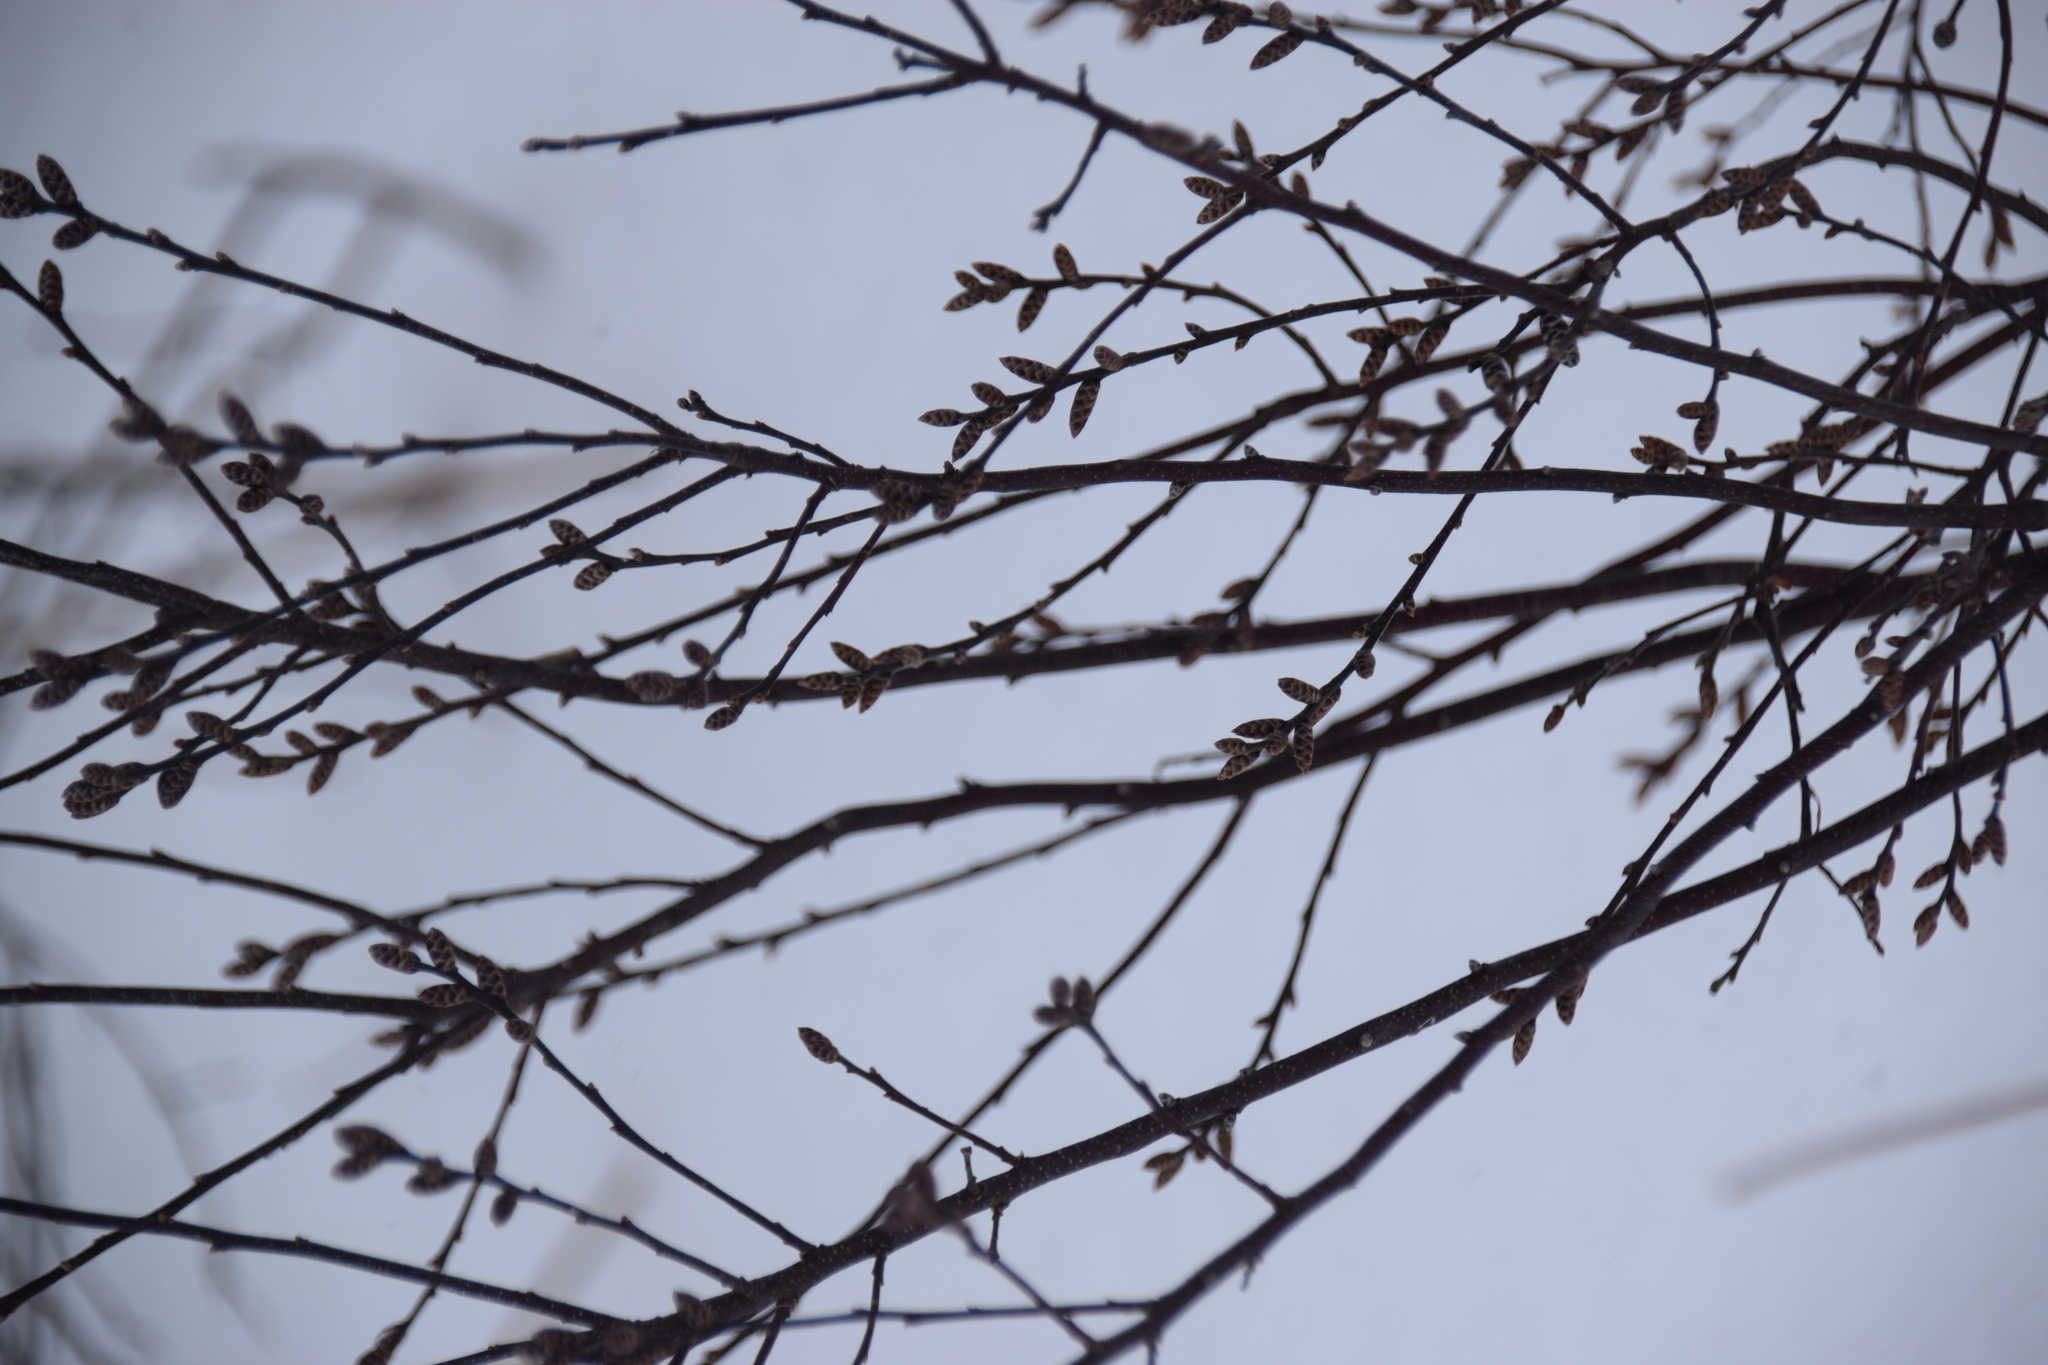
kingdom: Plantae
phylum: Tracheophyta
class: Magnoliopsida
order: Fagales
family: Myricaceae
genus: Myrica
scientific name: Myrica gale
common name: Sweet gale
